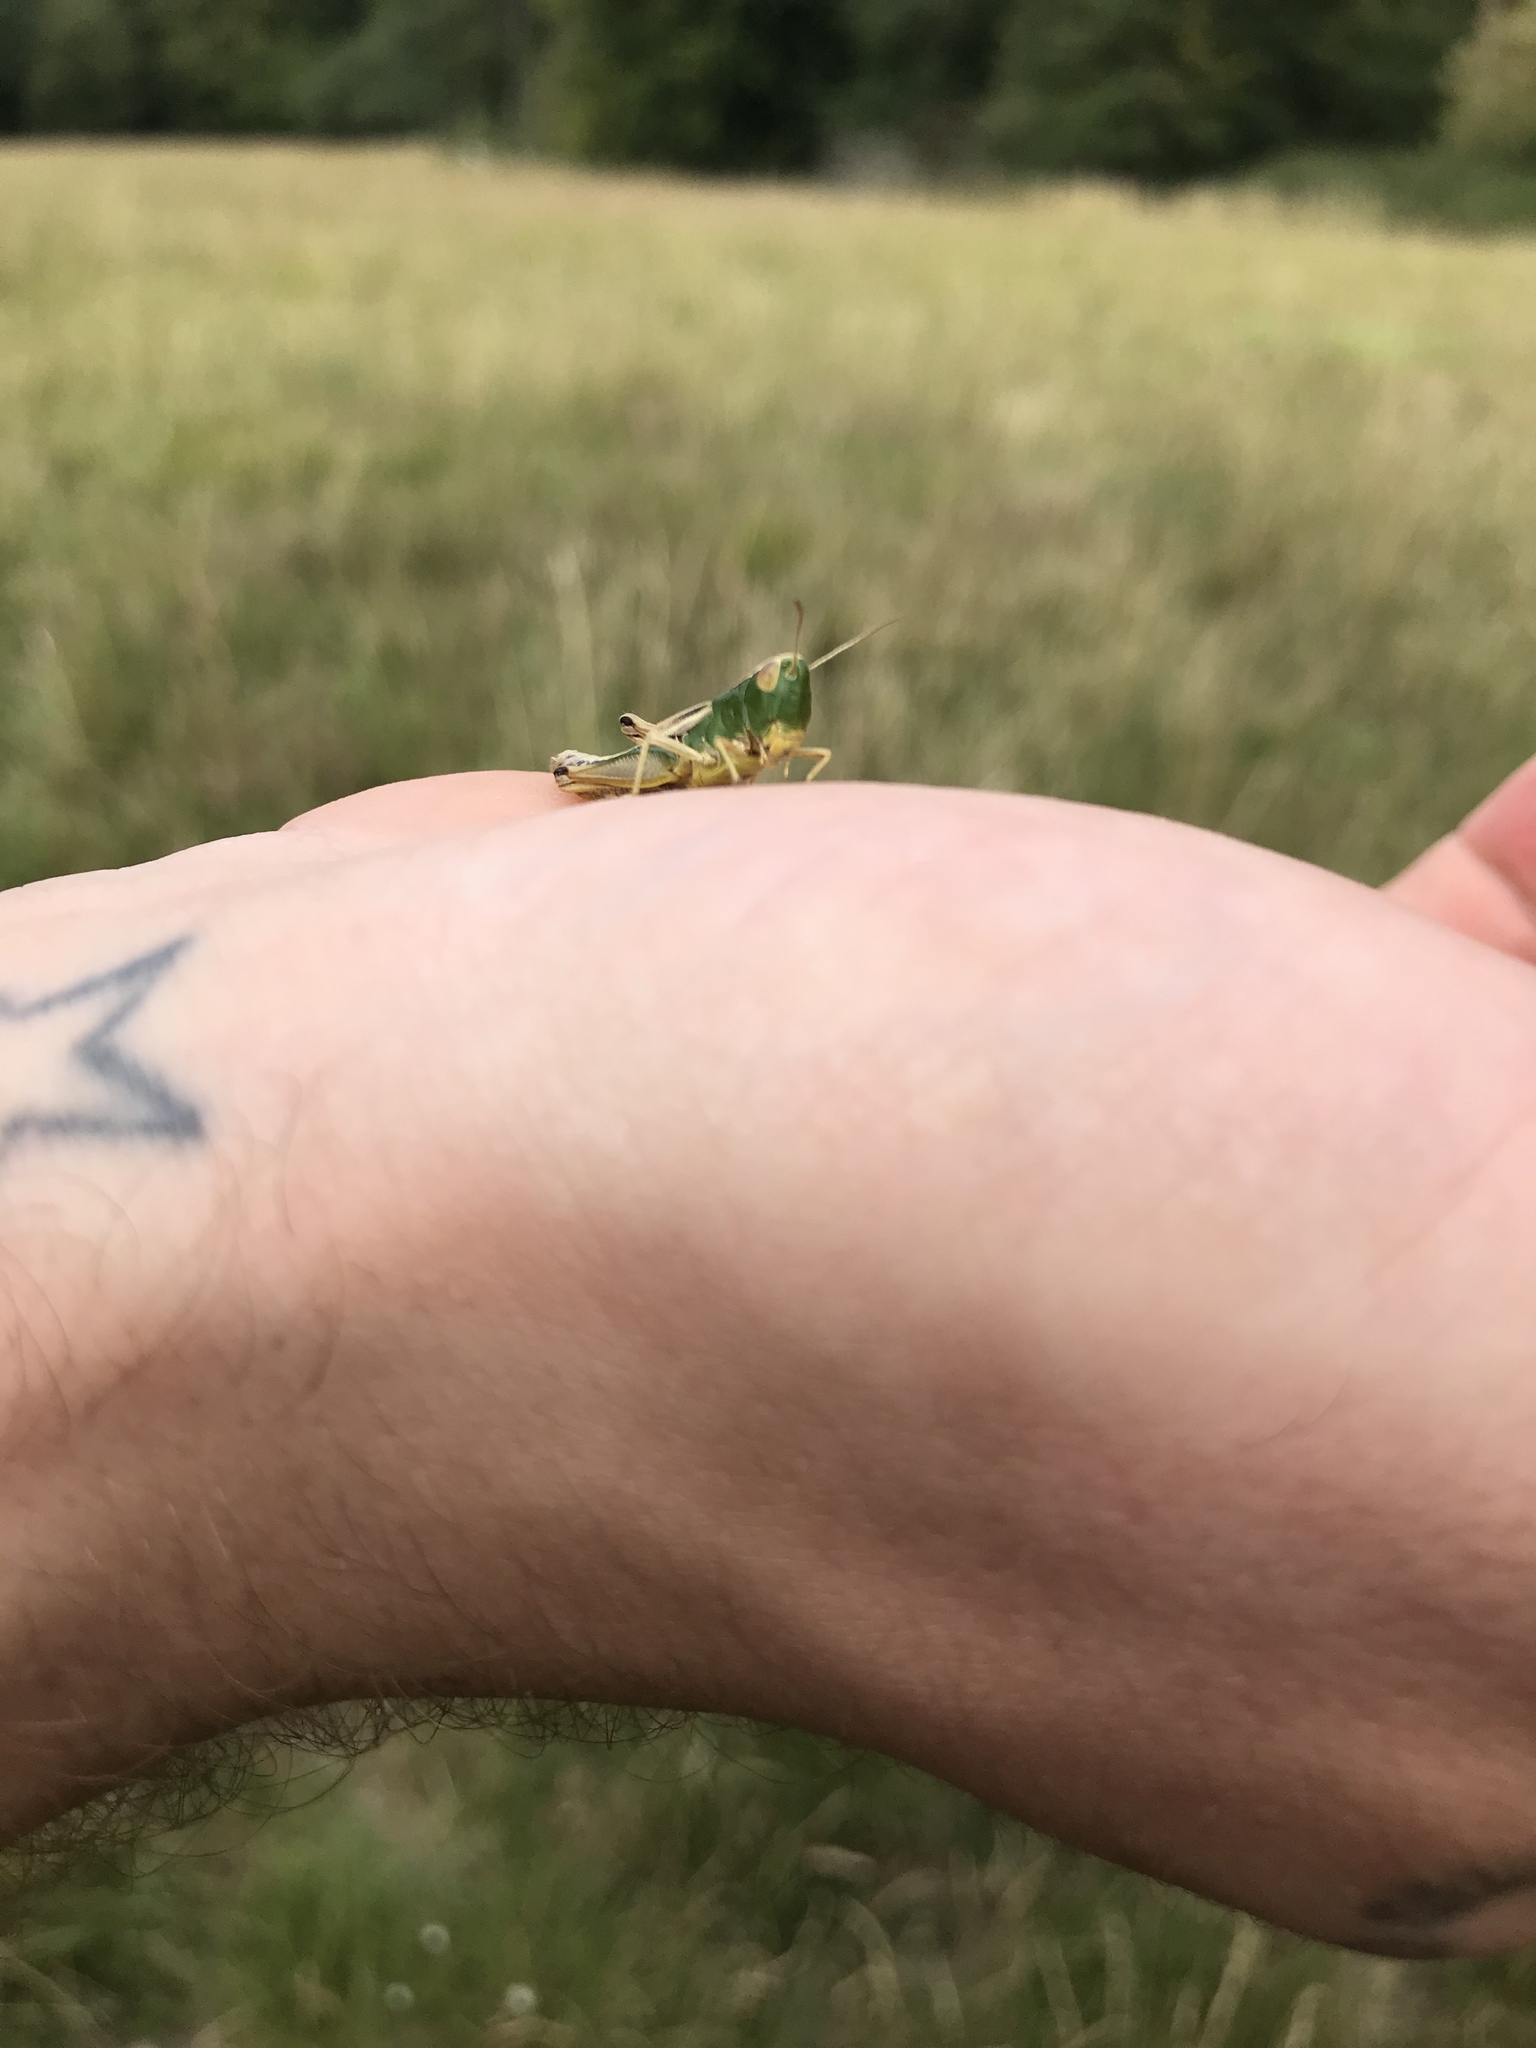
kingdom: Animalia
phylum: Arthropoda
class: Insecta
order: Orthoptera
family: Acrididae
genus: Pseudochorthippus
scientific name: Pseudochorthippus parallelus
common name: Meadow grasshopper
